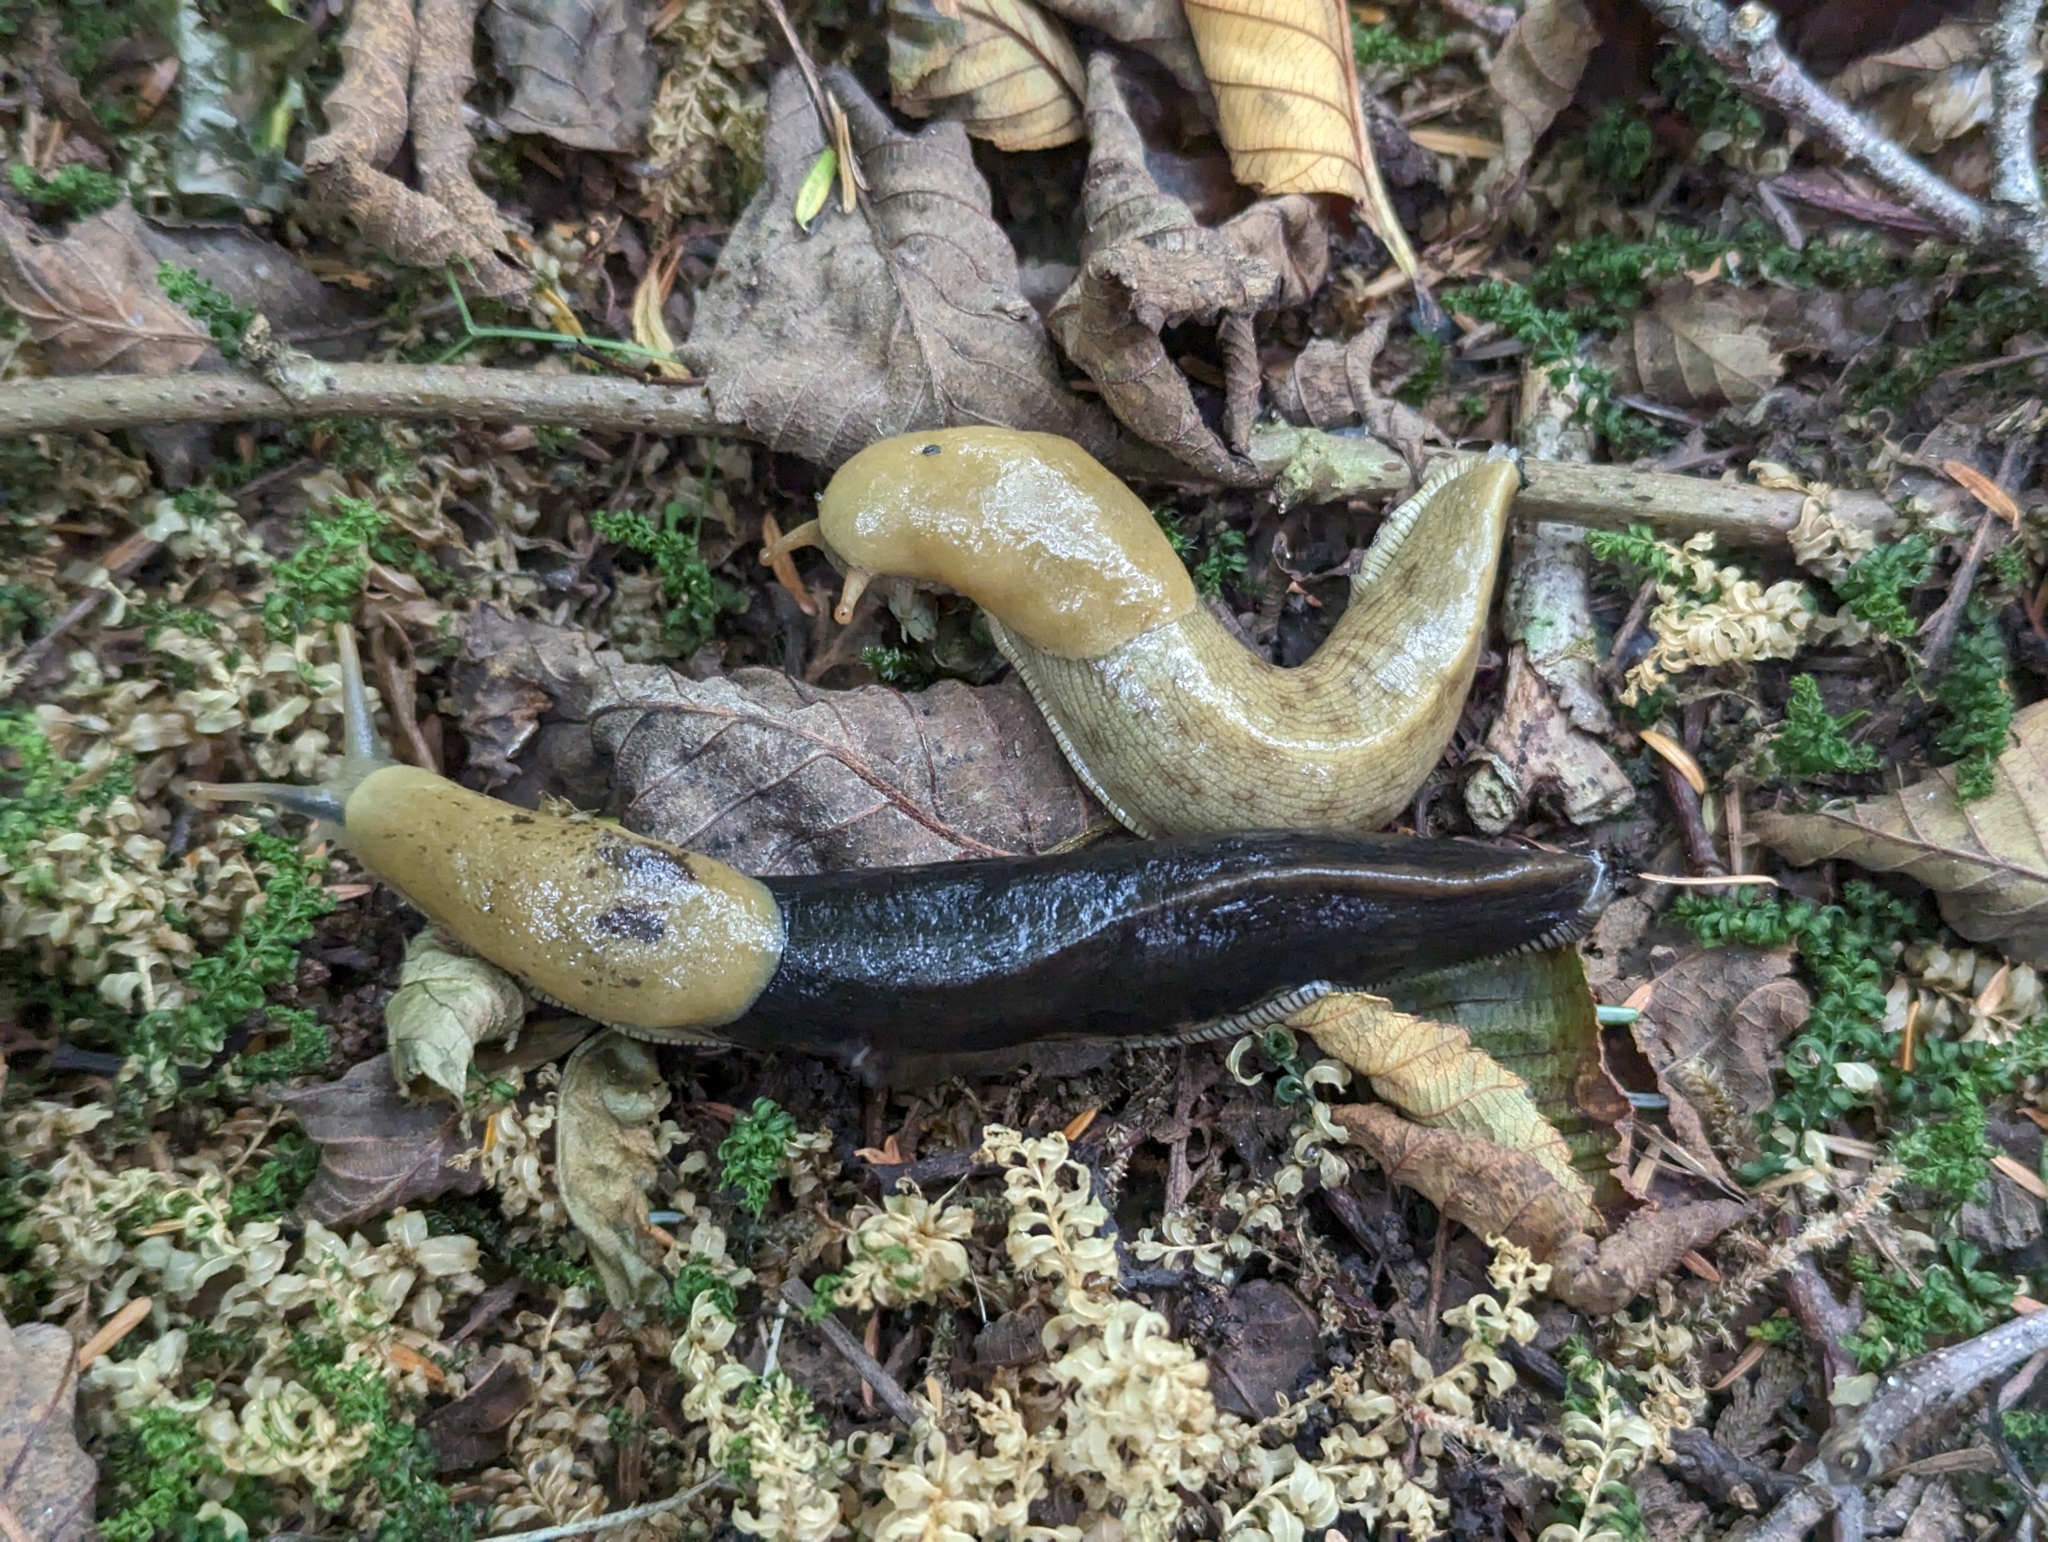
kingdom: Animalia
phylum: Mollusca
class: Gastropoda
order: Stylommatophora
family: Ariolimacidae
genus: Ariolimax
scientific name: Ariolimax columbianus
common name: Pacific banana slug
